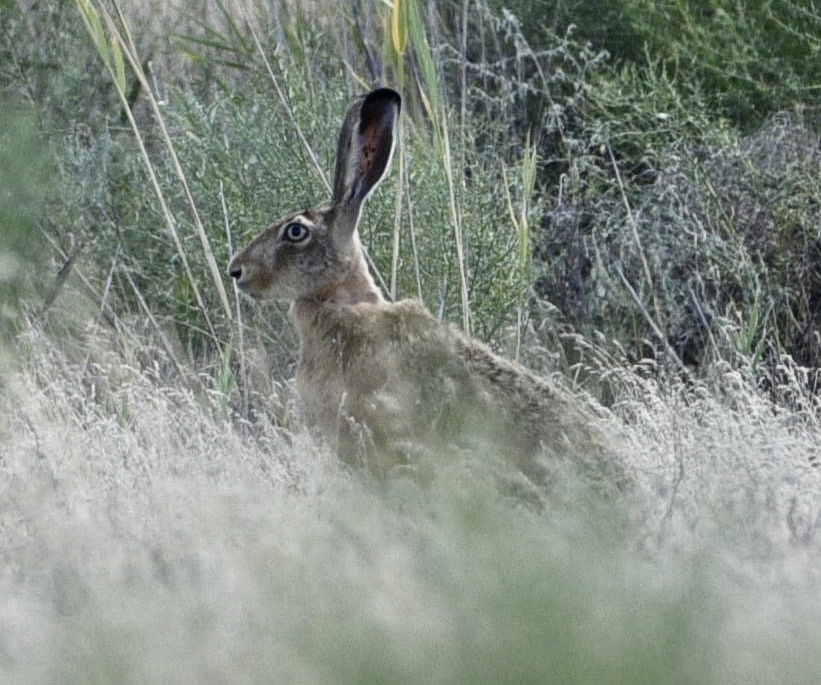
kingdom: Animalia
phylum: Chordata
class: Mammalia
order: Lagomorpha
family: Leporidae
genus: Lepus
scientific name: Lepus europaeus
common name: European hare
